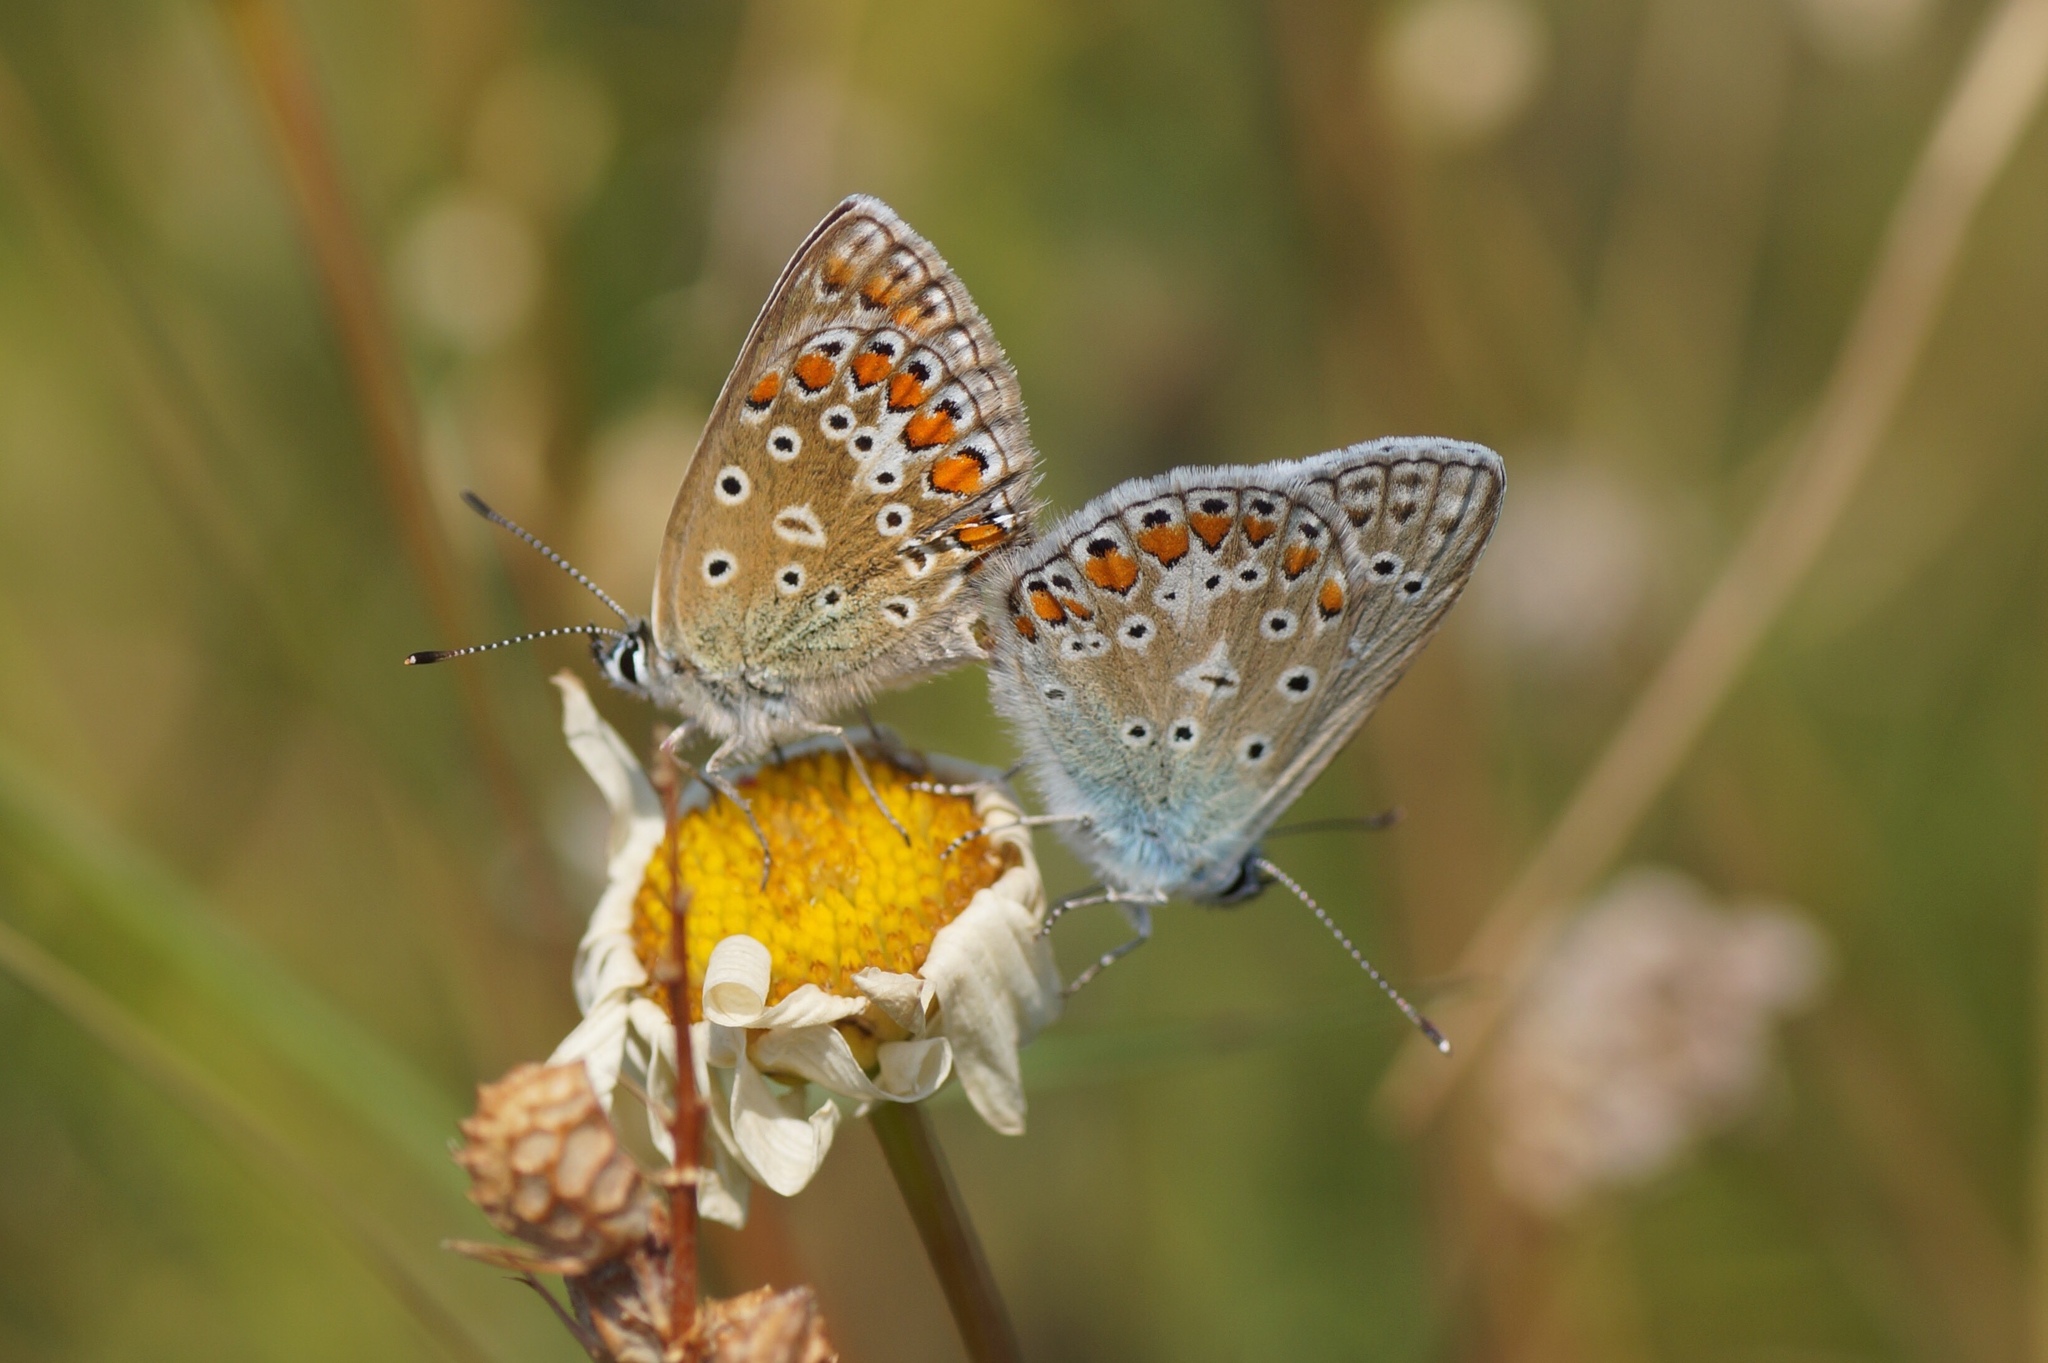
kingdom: Animalia
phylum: Arthropoda
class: Insecta
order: Lepidoptera
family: Lycaenidae
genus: Polyommatus
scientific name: Polyommatus icarus
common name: Common blue
